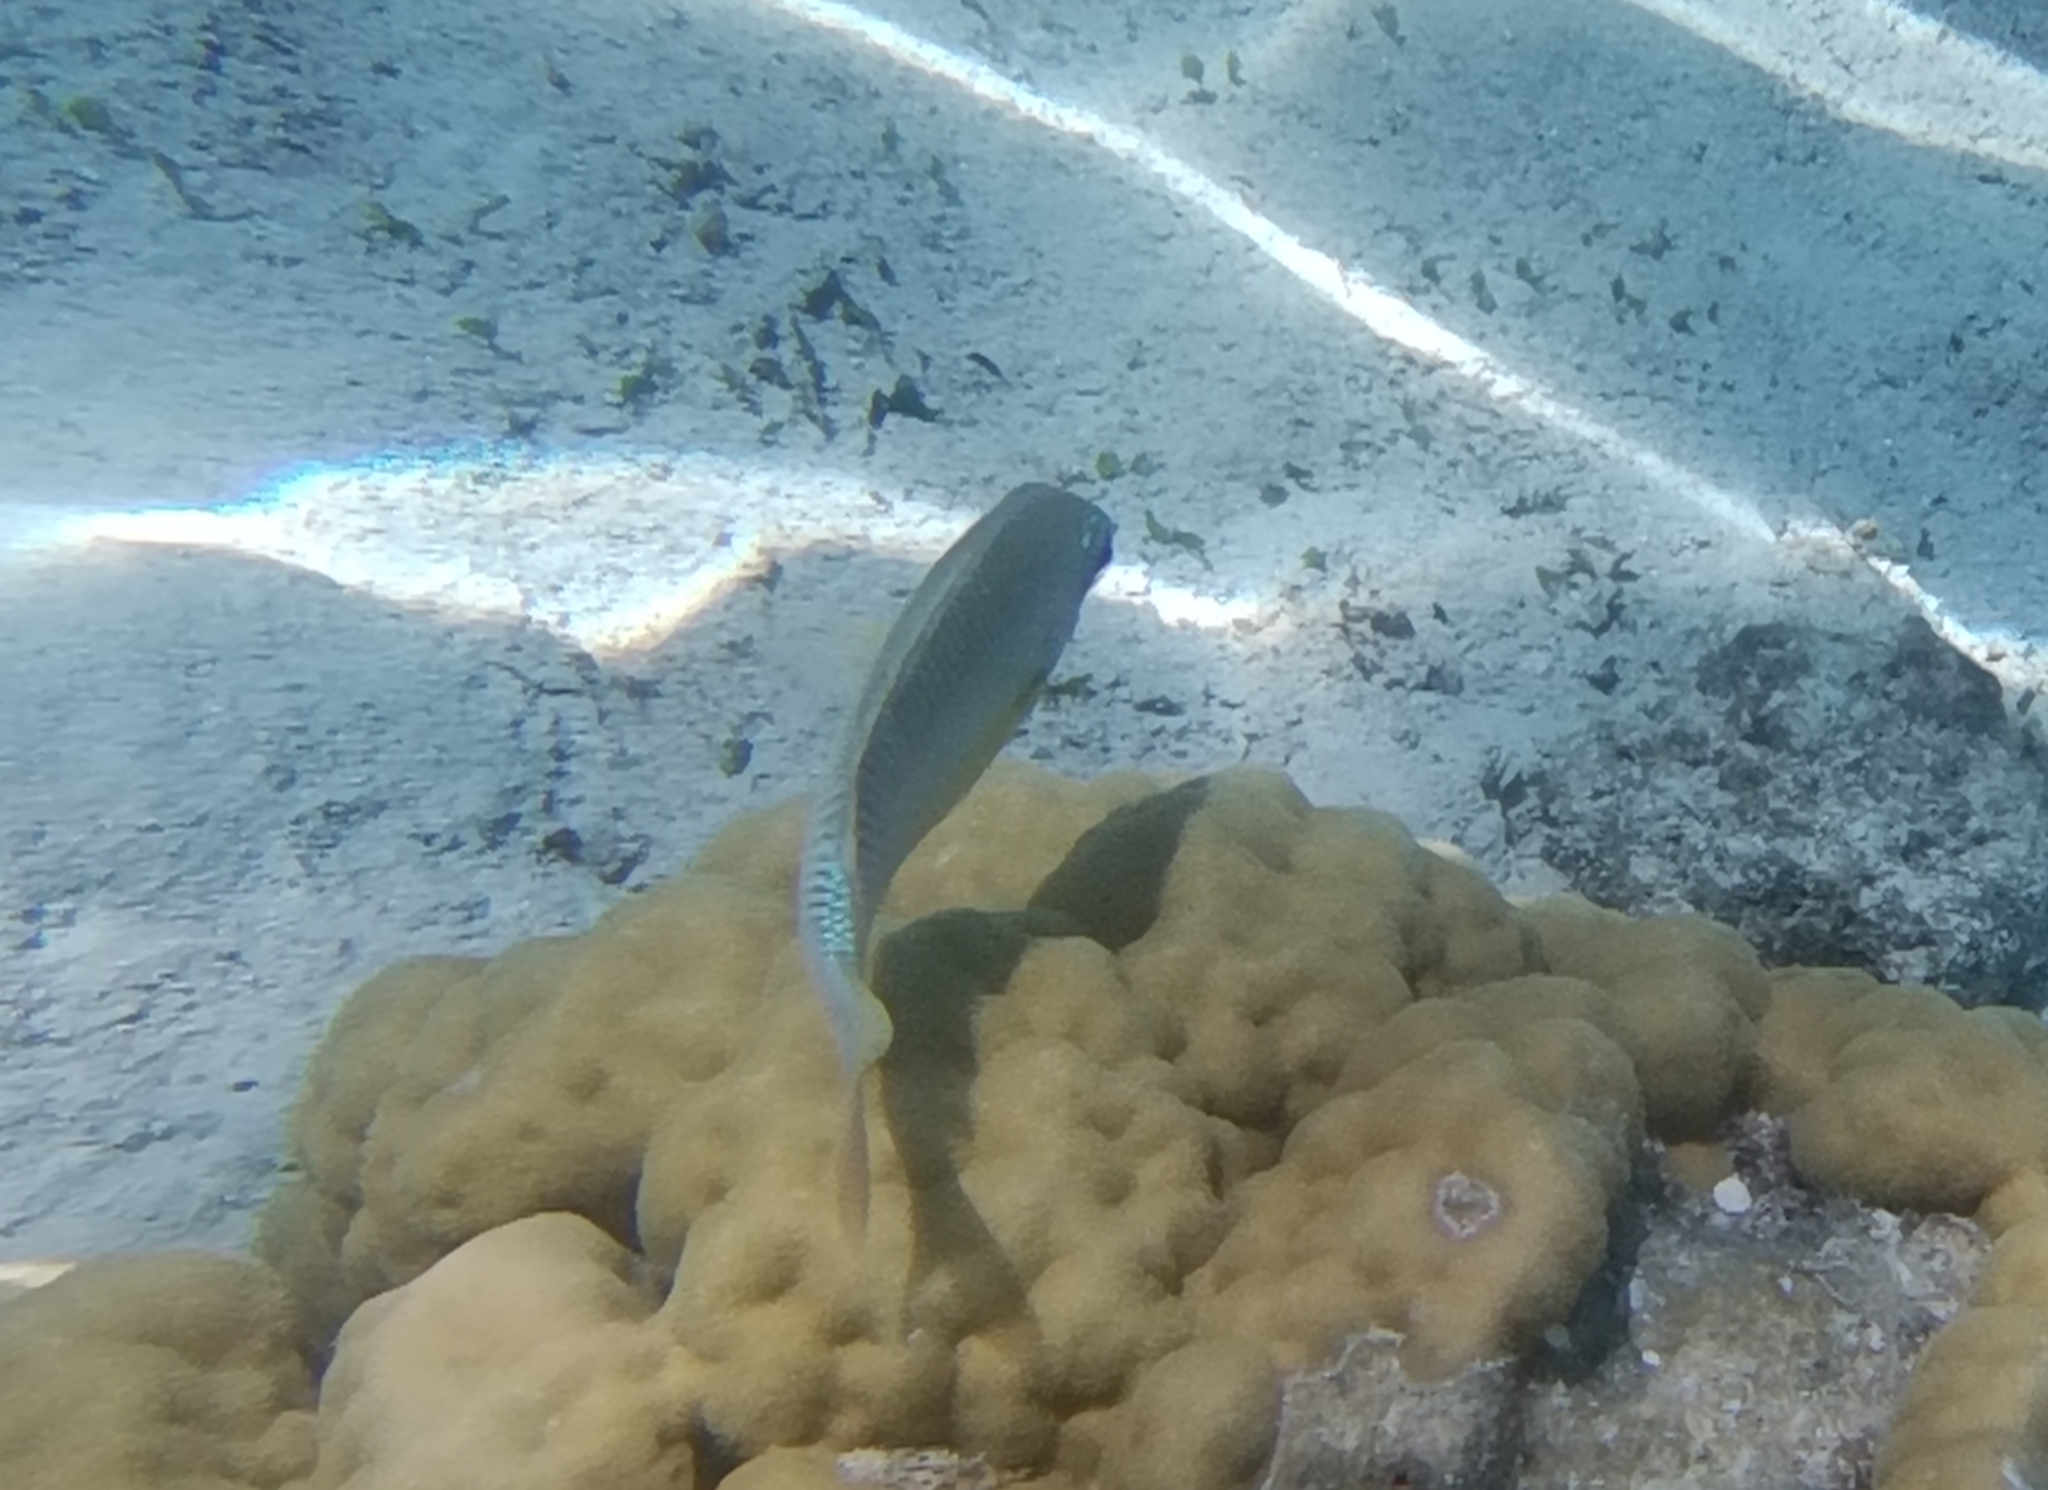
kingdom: Animalia
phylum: Chordata
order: Perciformes
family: Nemipteridae
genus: Scolopsis
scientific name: Scolopsis margaritifera
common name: Pearly monocle bream
